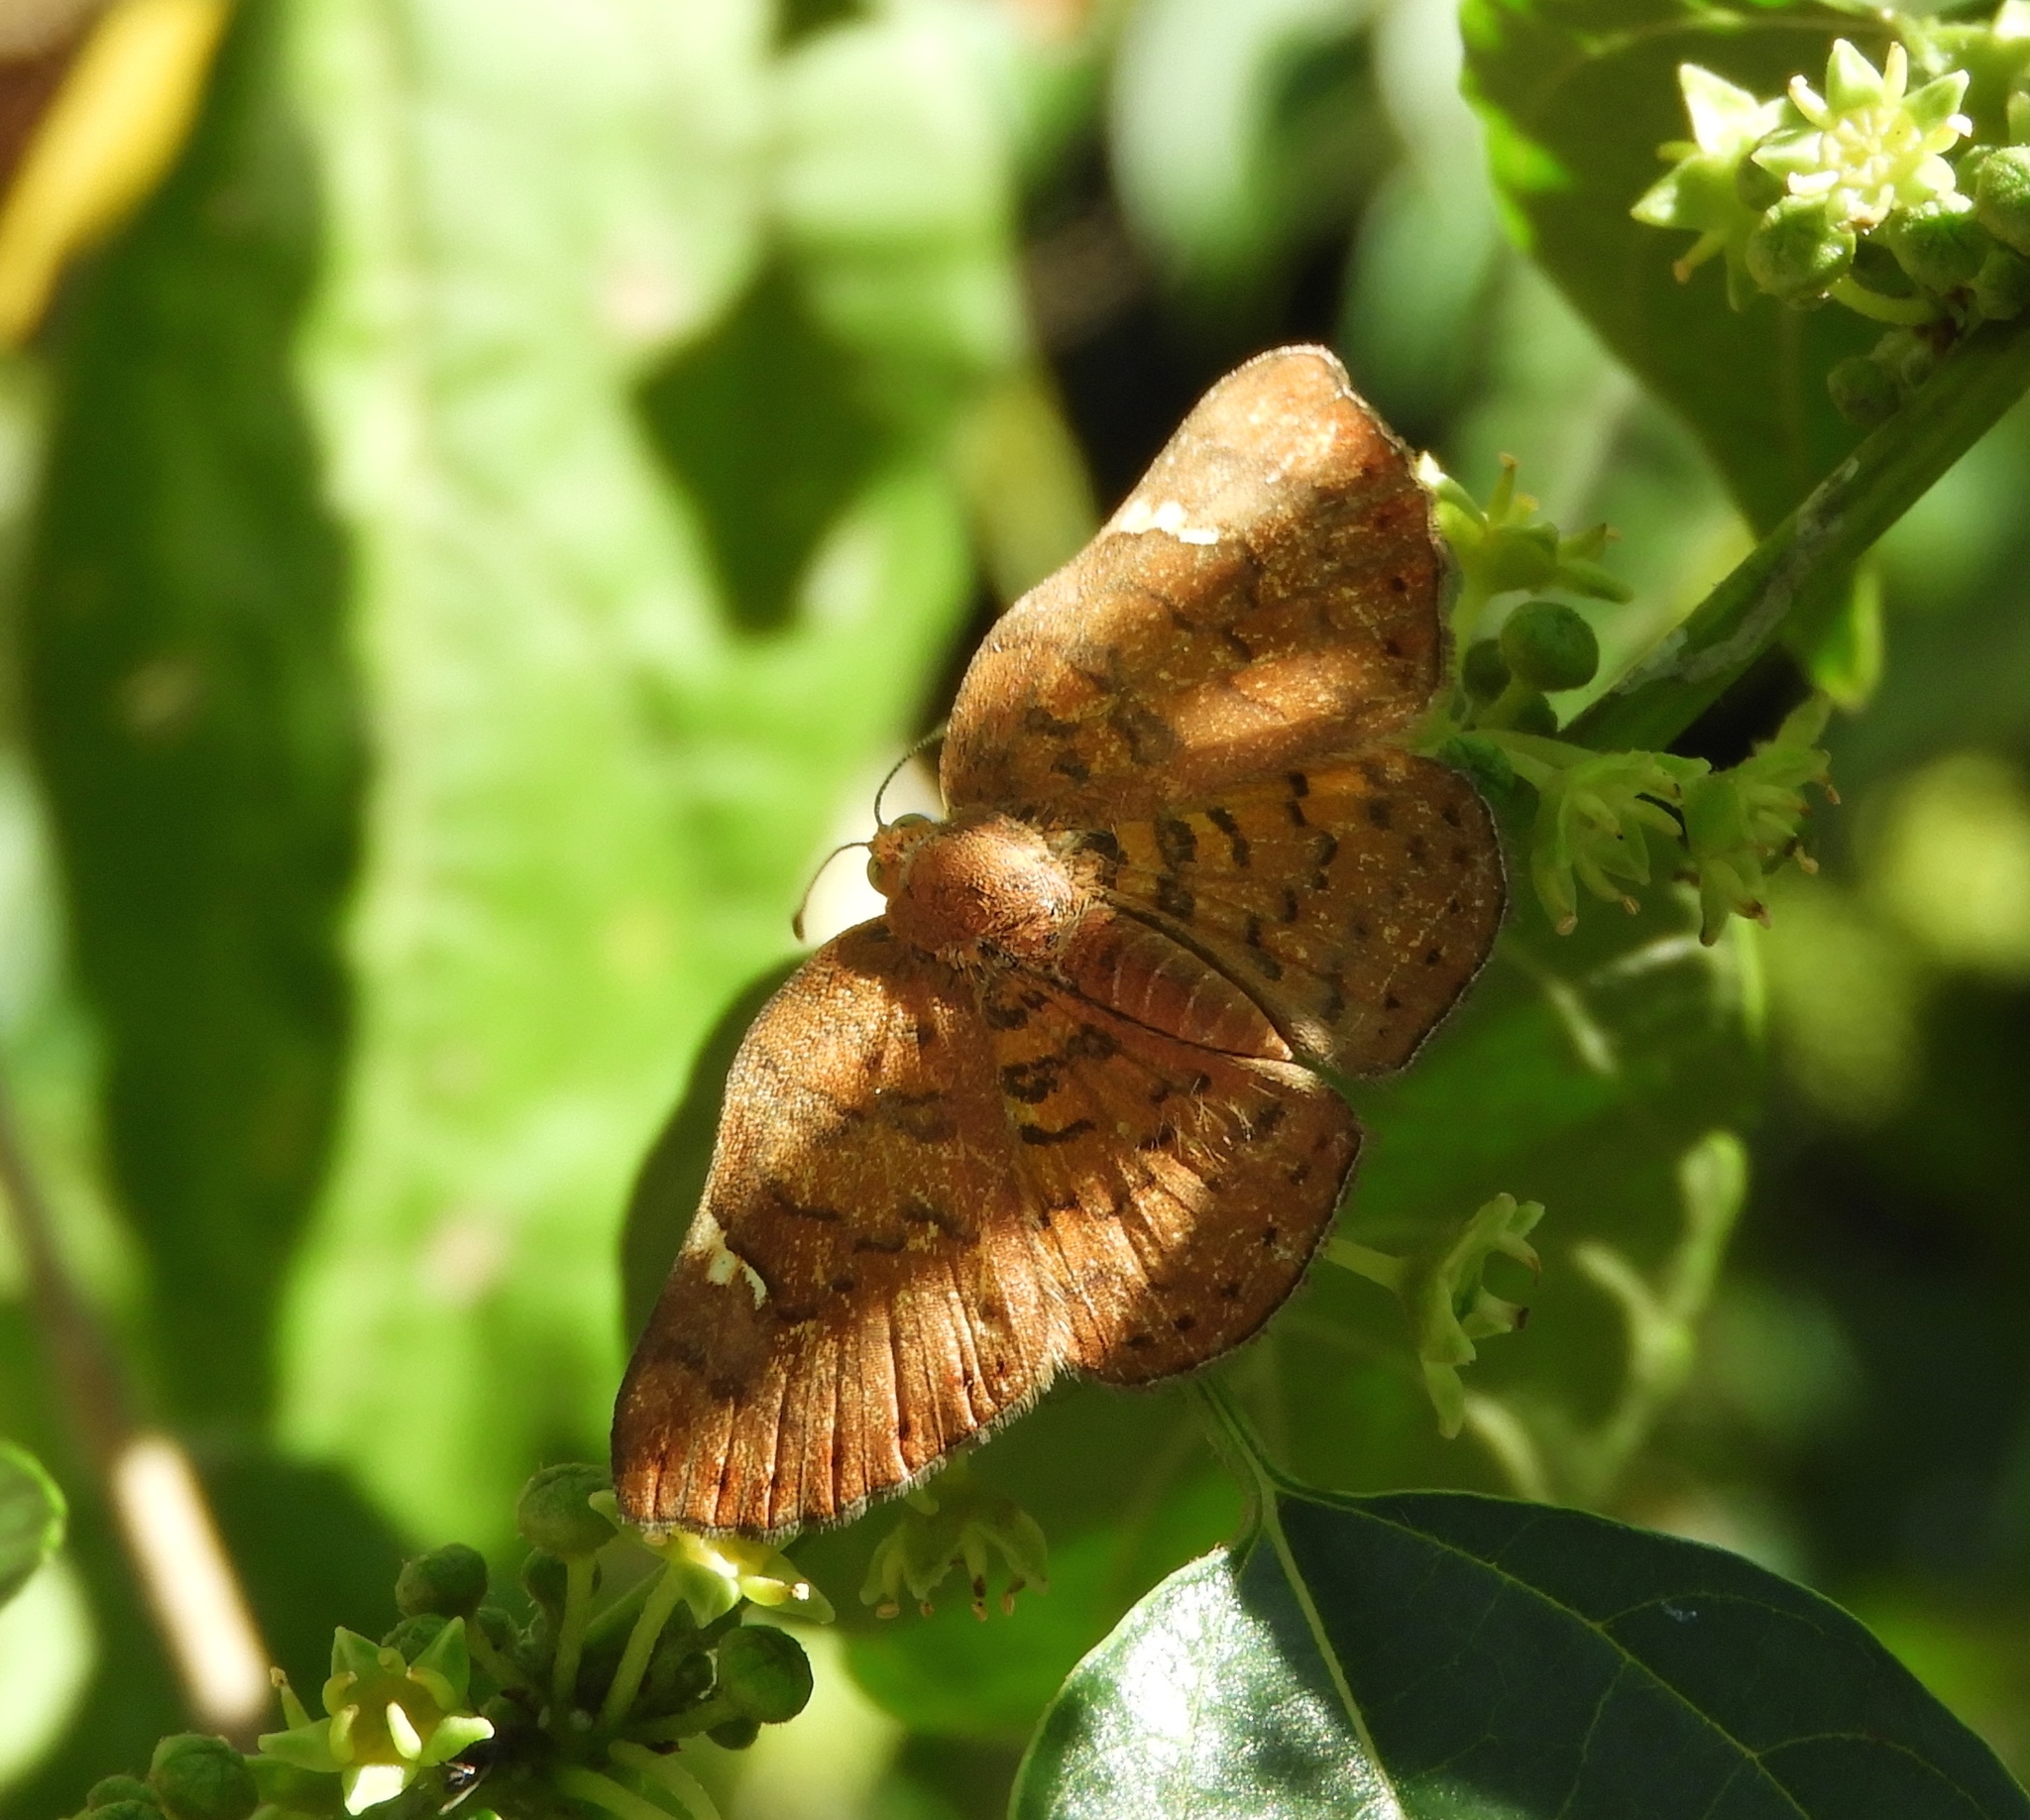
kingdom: Animalia
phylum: Arthropoda
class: Insecta
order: Lepidoptera
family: Riodinidae
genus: Curvie
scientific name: Curvie emesia
